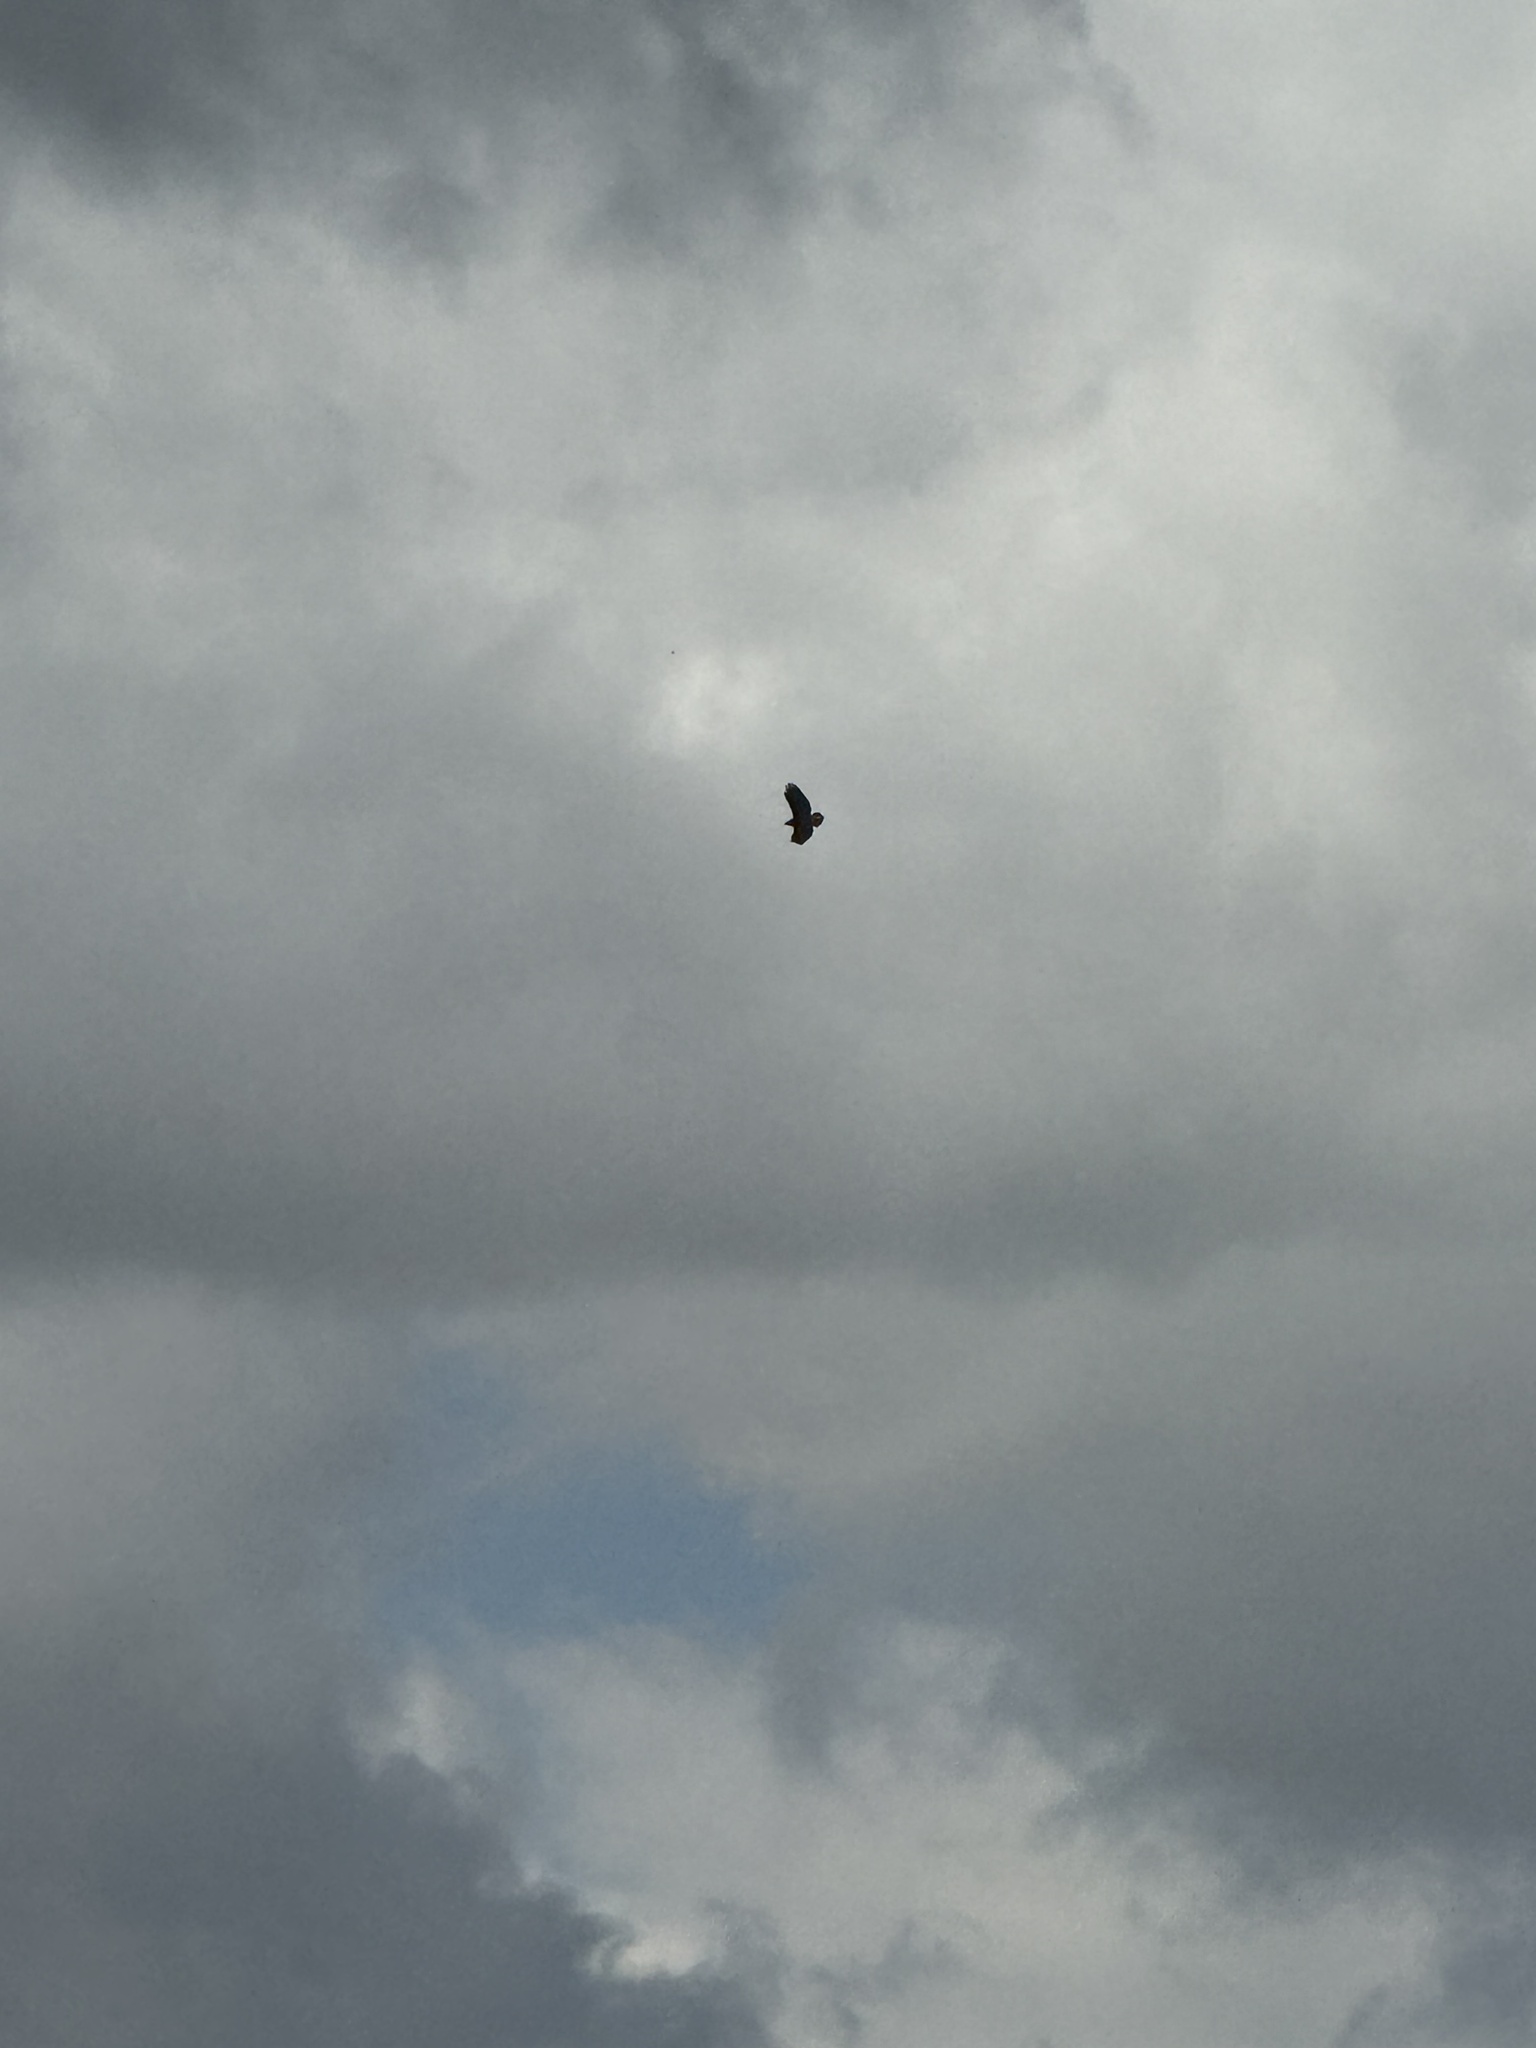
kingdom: Animalia
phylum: Chordata
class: Aves
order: Accipitriformes
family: Accipitridae
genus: Buteo
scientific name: Buteo jamaicensis
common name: Red-tailed hawk
